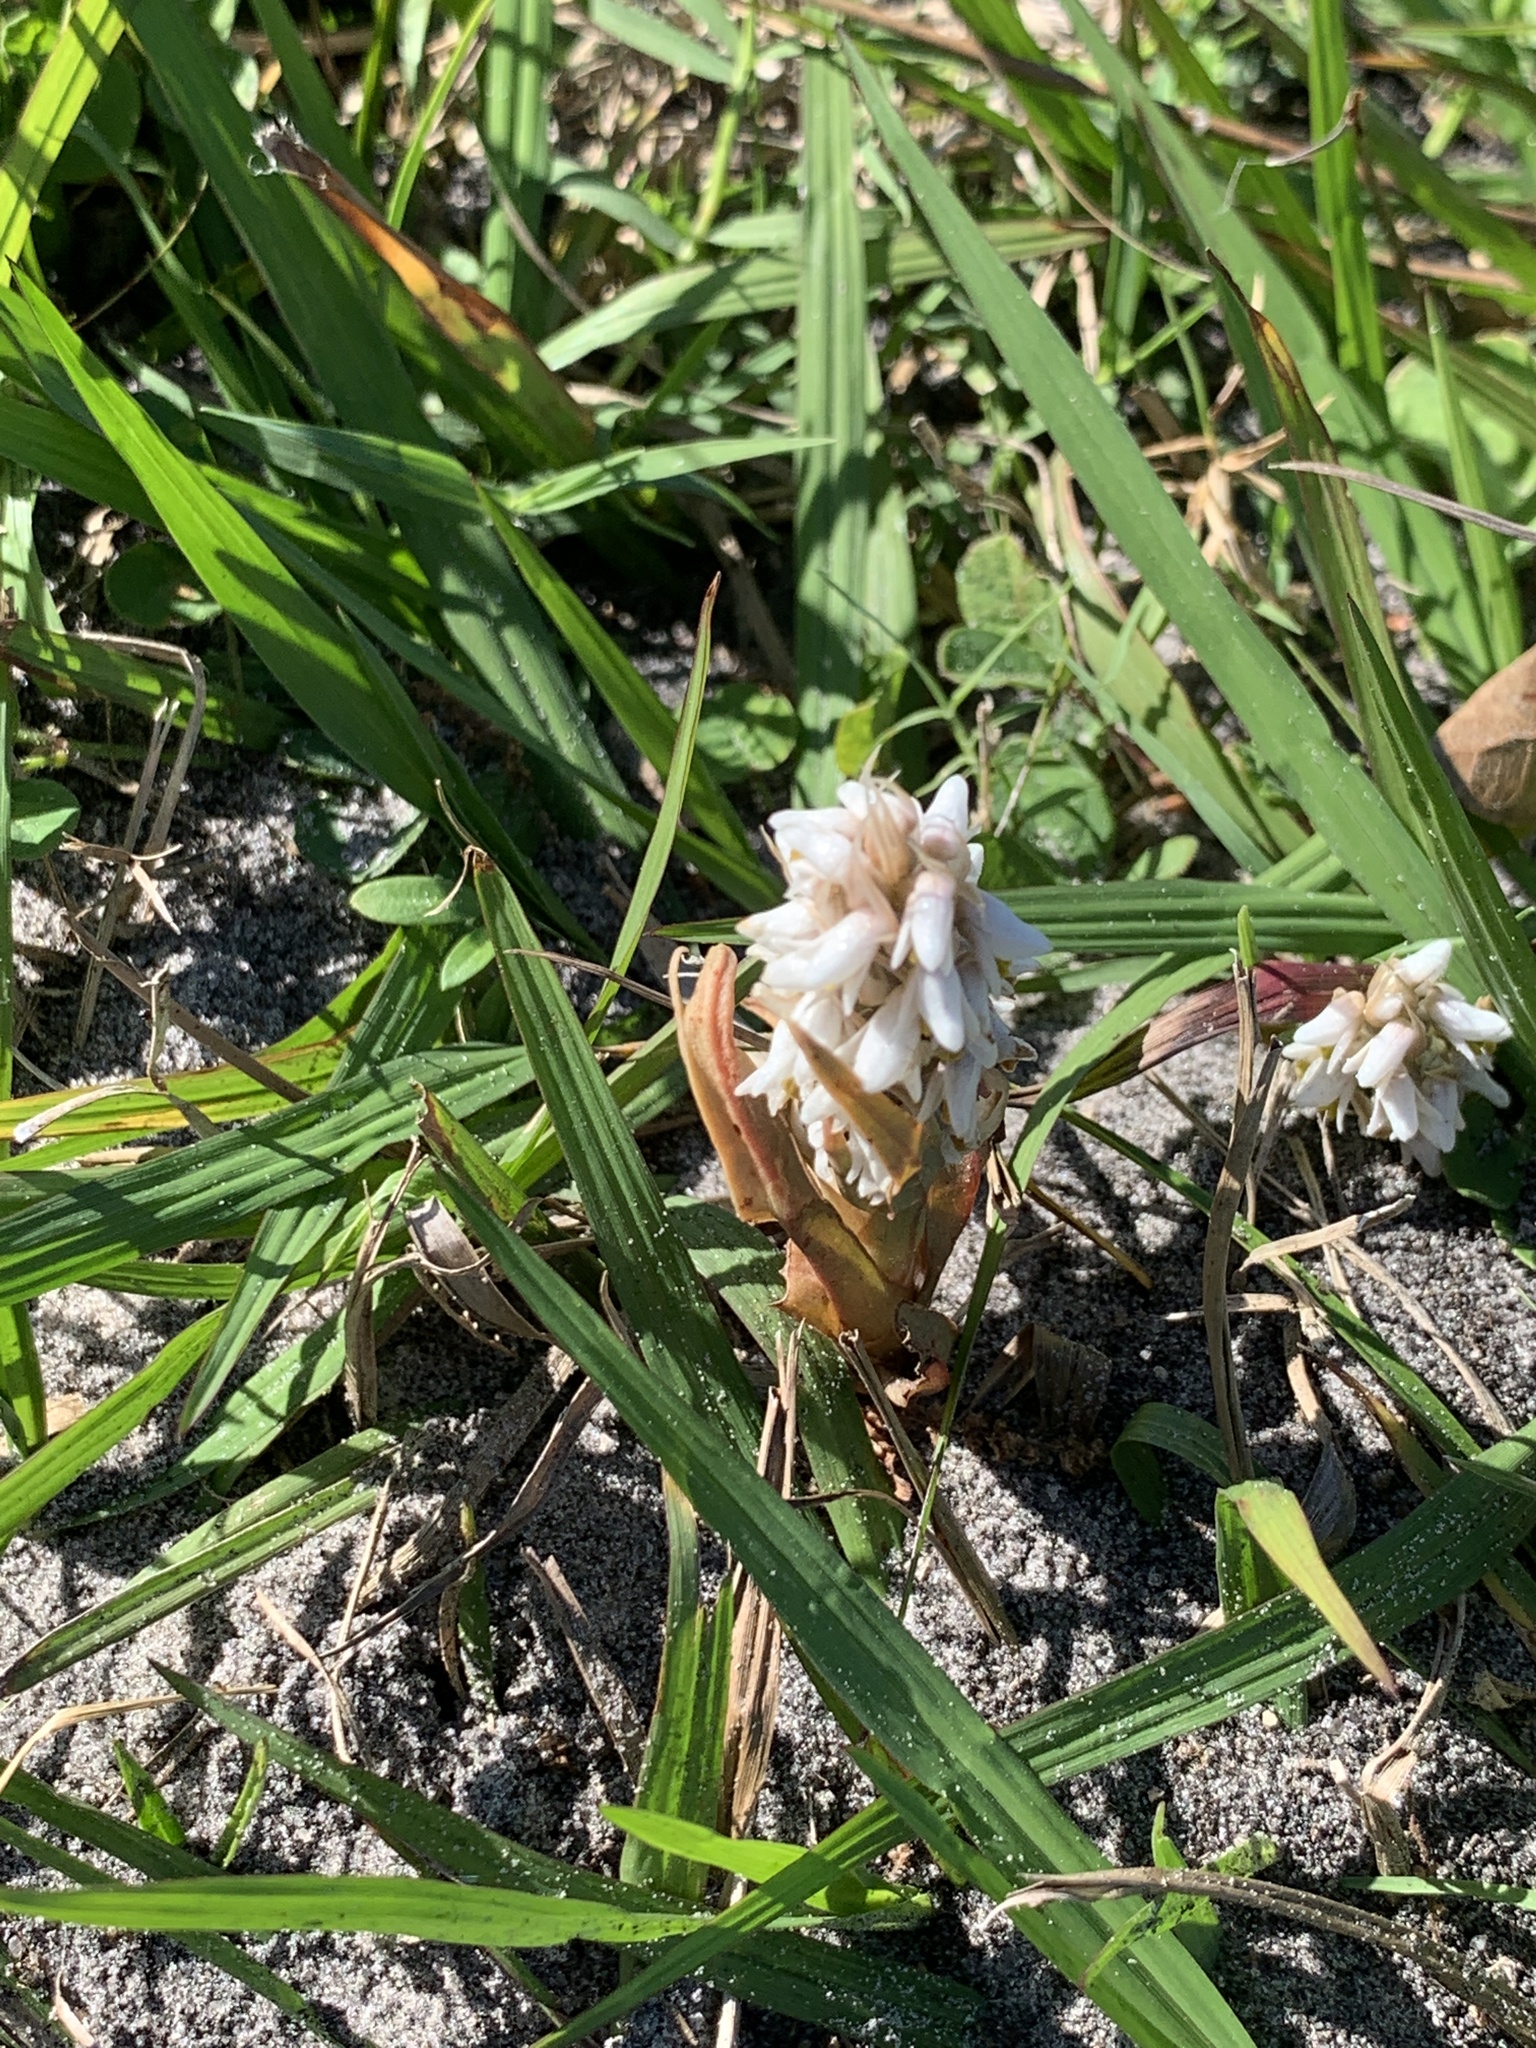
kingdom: Plantae
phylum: Tracheophyta
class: Liliopsida
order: Asparagales
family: Orchidaceae
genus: Zeuxine
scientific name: Zeuxine strateumatica
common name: Soldier's orchid
